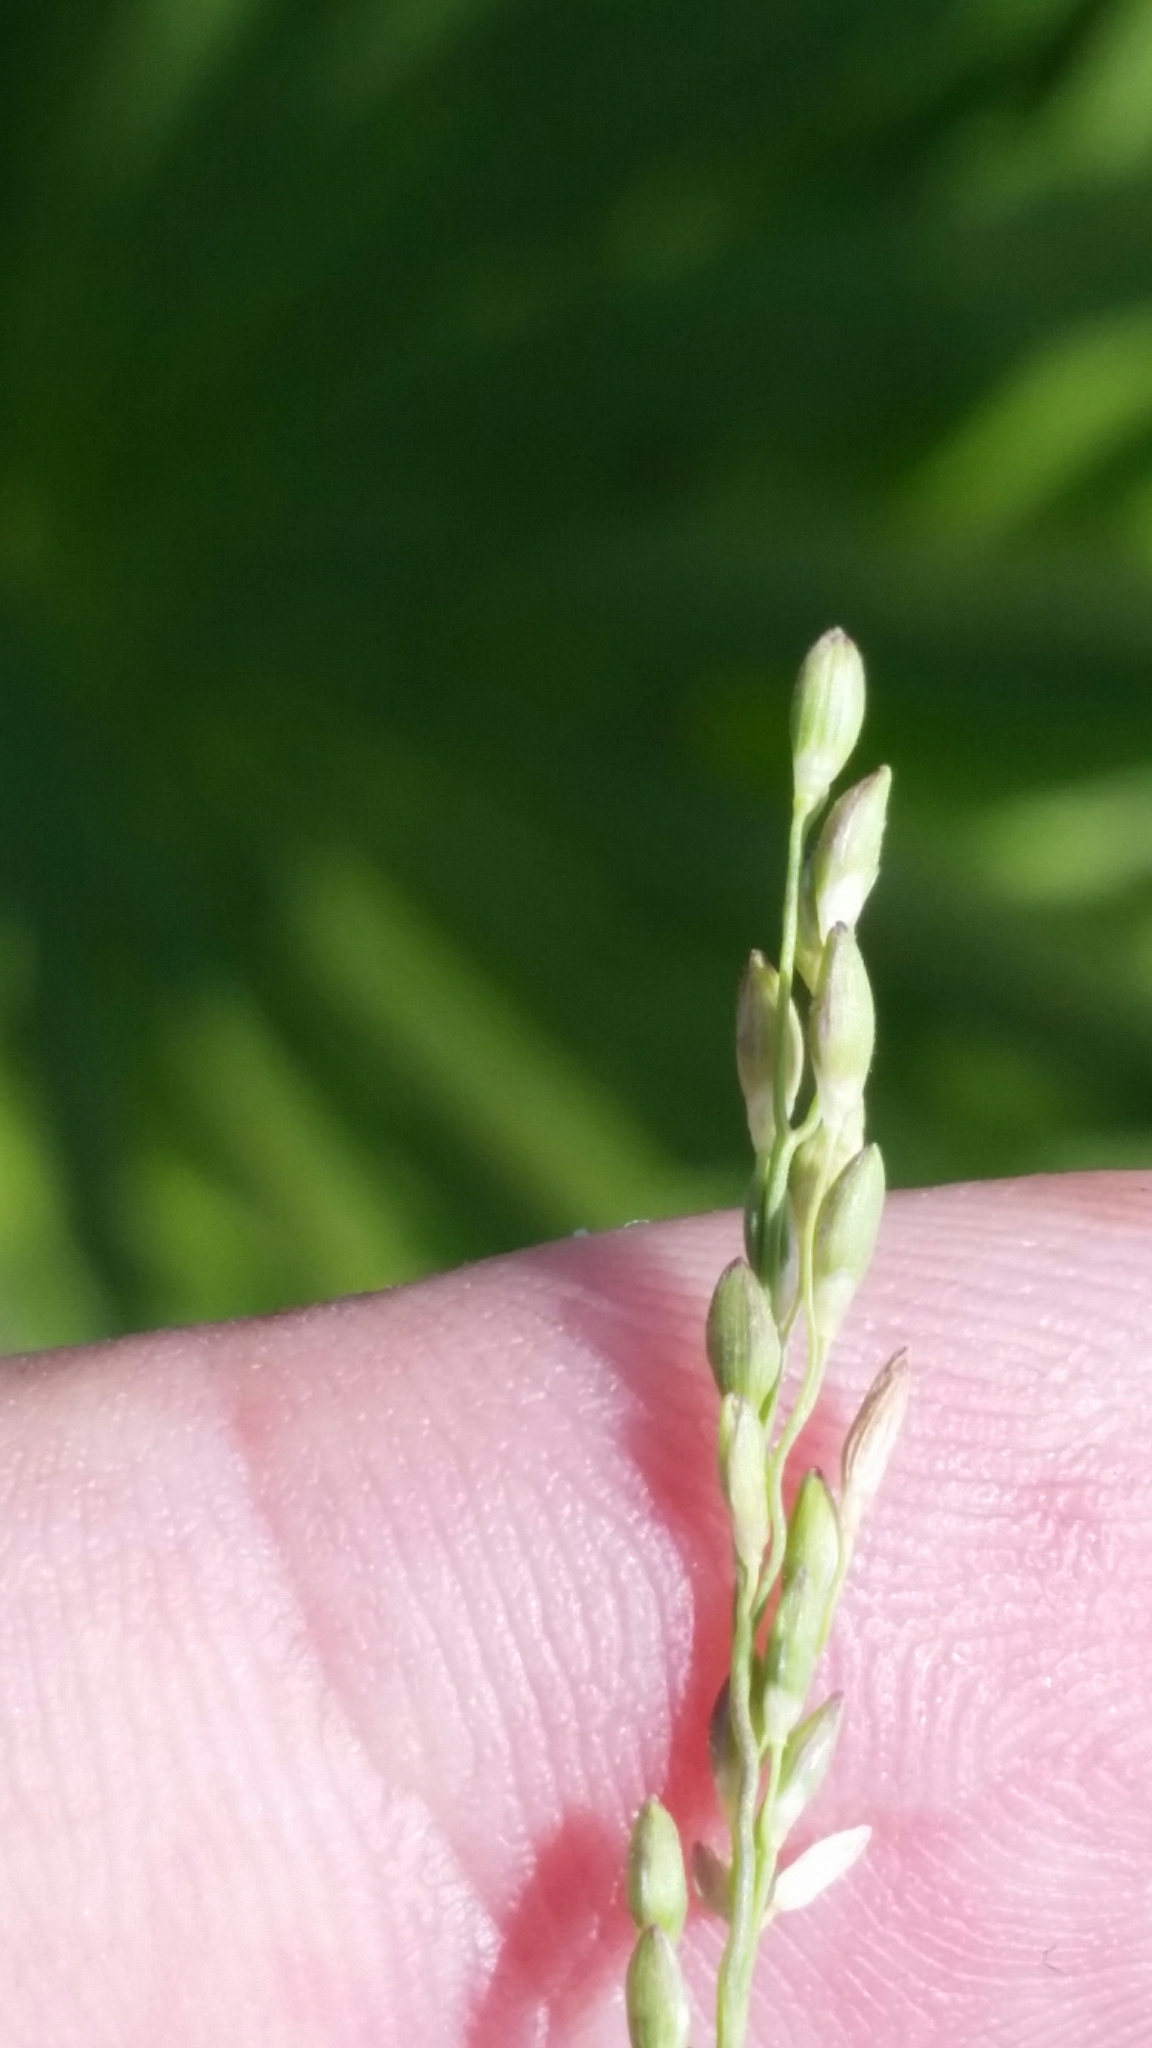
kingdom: Plantae
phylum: Tracheophyta
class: Liliopsida
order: Poales
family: Poaceae
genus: Dichanthelium
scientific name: Dichanthelium pinetorum
